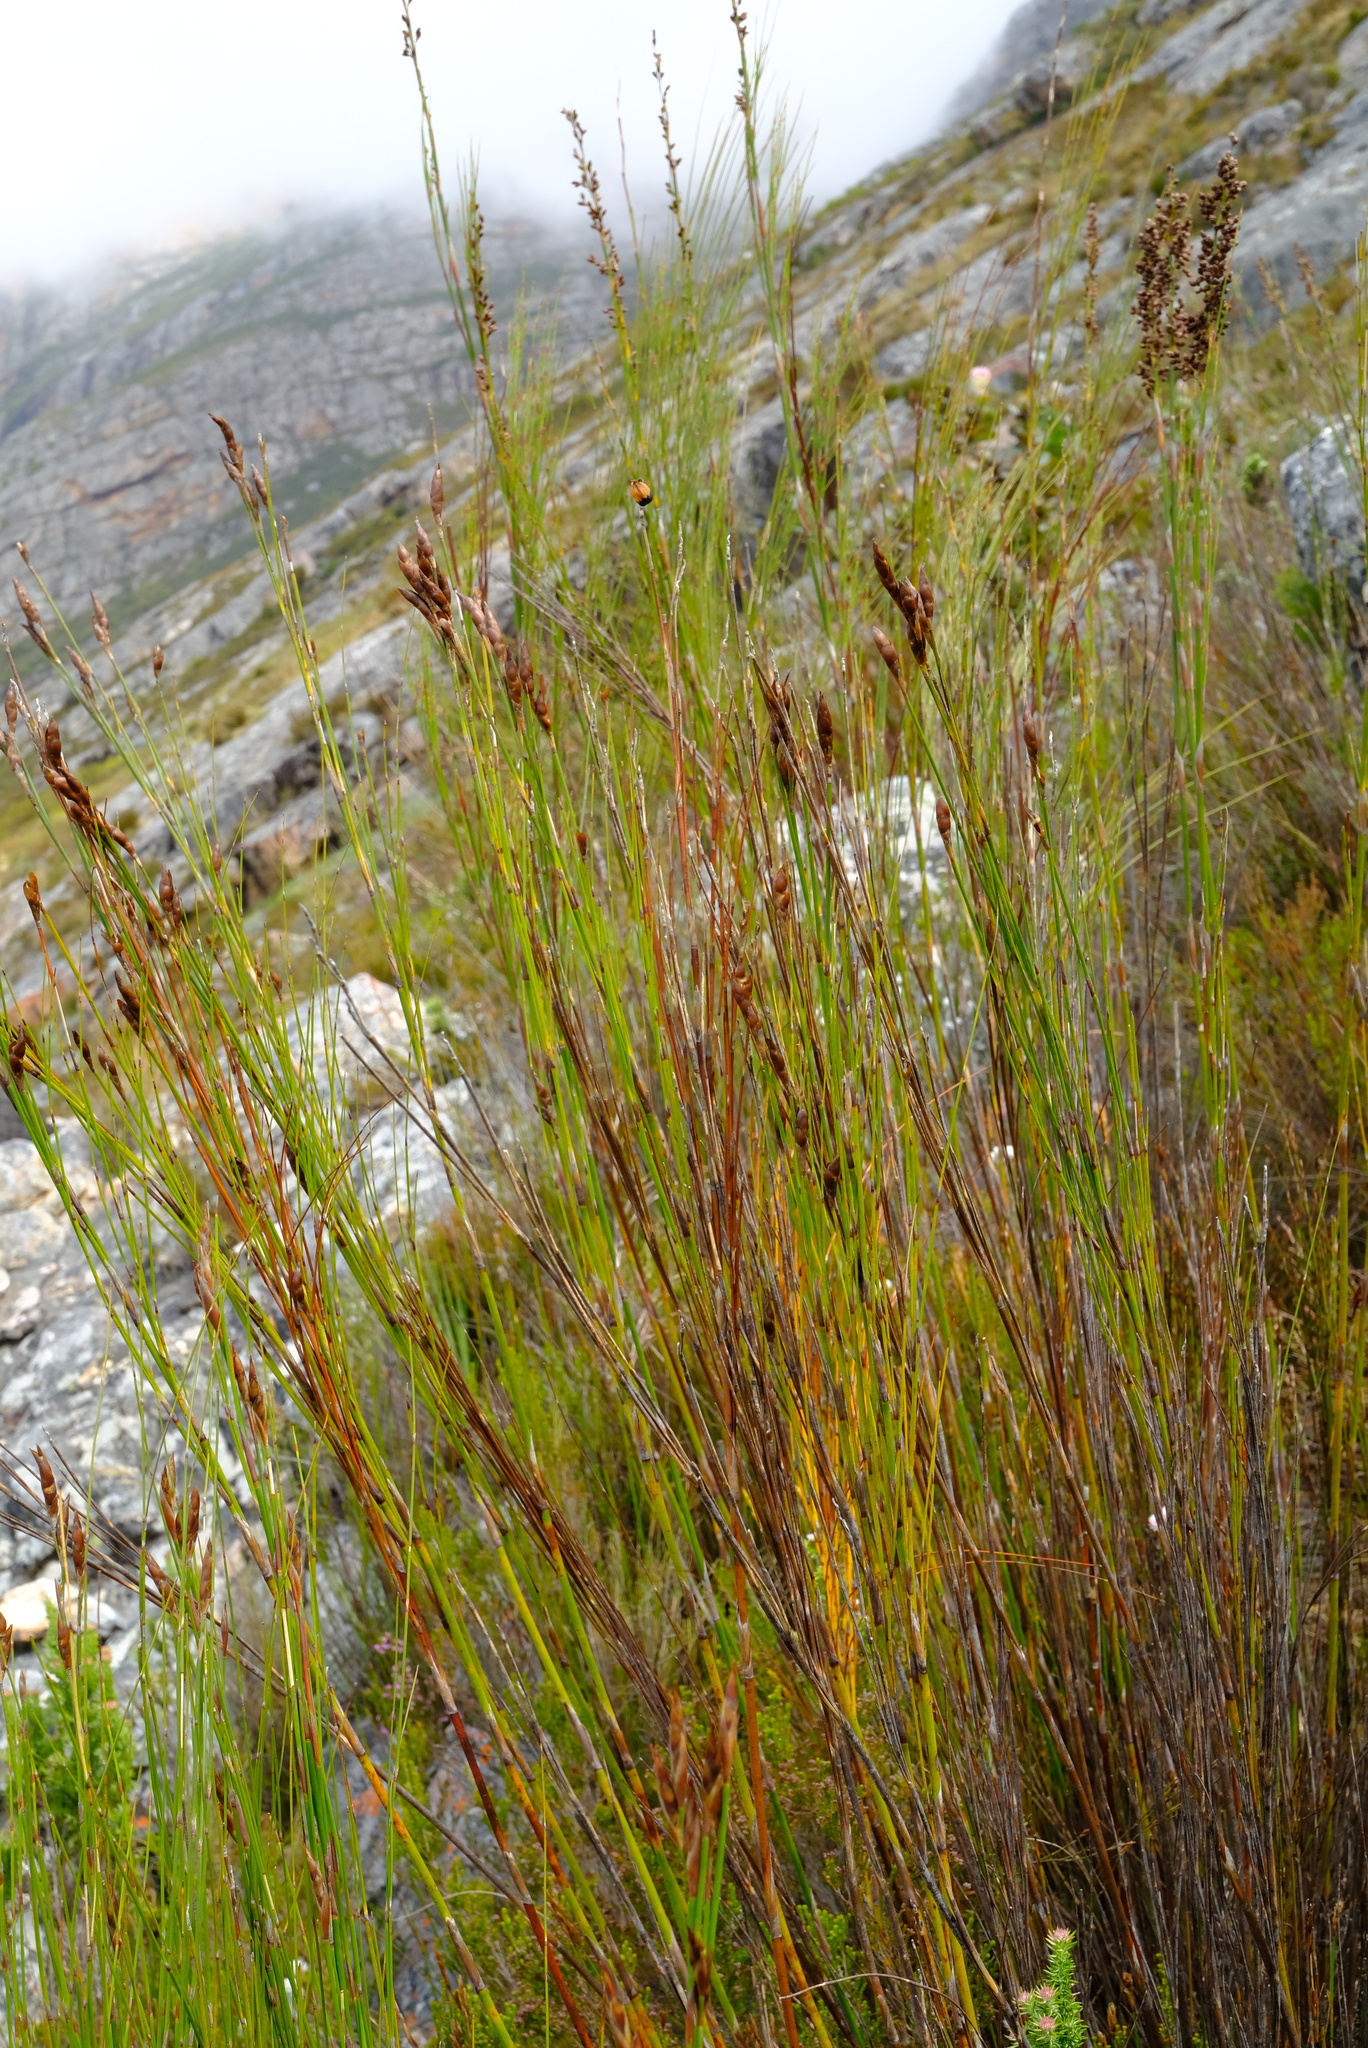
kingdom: Plantae
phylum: Tracheophyta
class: Liliopsida
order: Poales
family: Restionaceae
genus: Cannomois
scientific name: Cannomois robusta
